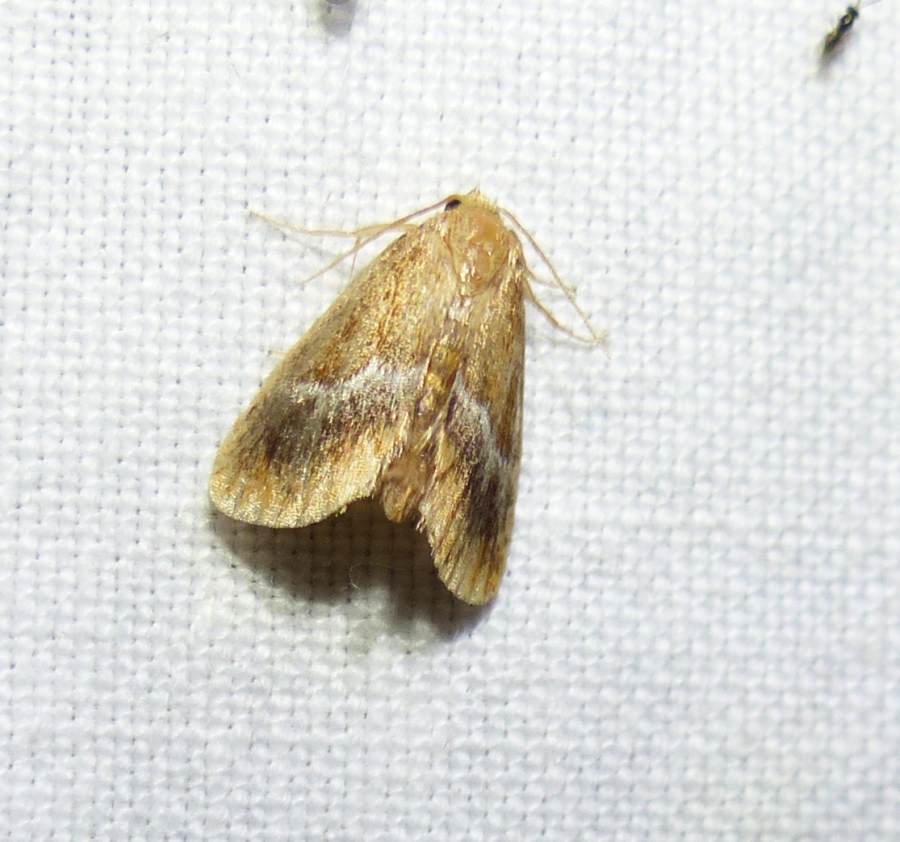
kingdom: Animalia
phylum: Arthropoda
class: Insecta
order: Lepidoptera
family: Limacodidae
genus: Lithacodes
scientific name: Lithacodes fasciola
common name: Yellow-shouldered slug moth
